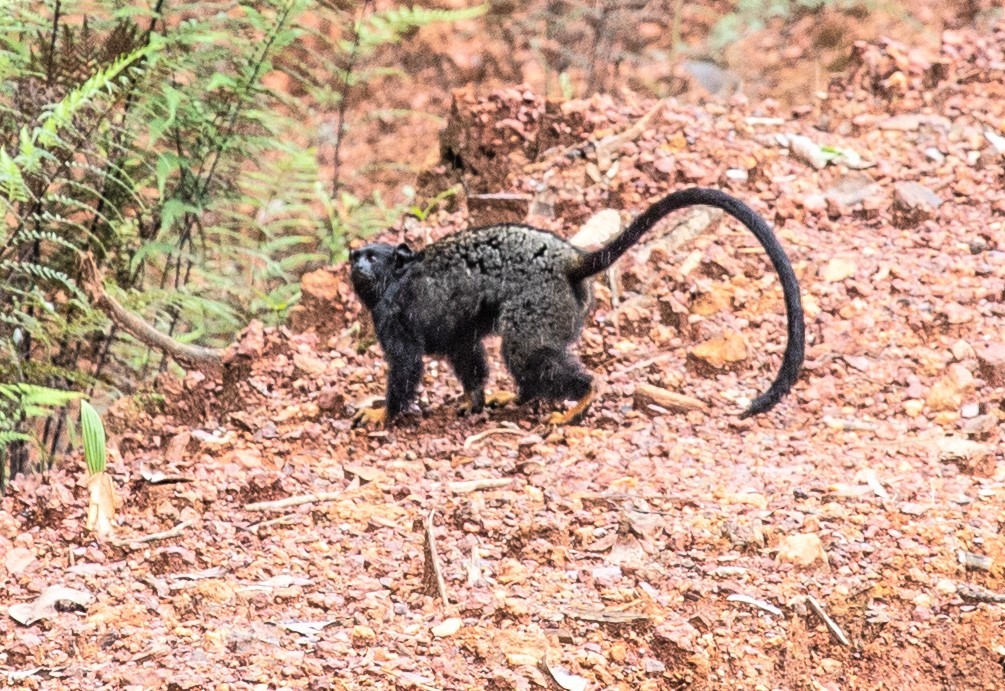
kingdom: Animalia
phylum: Chordata
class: Mammalia
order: Primates
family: Callitrichidae
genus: Saguinus
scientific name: Saguinus midas
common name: Red-handed tamarin
